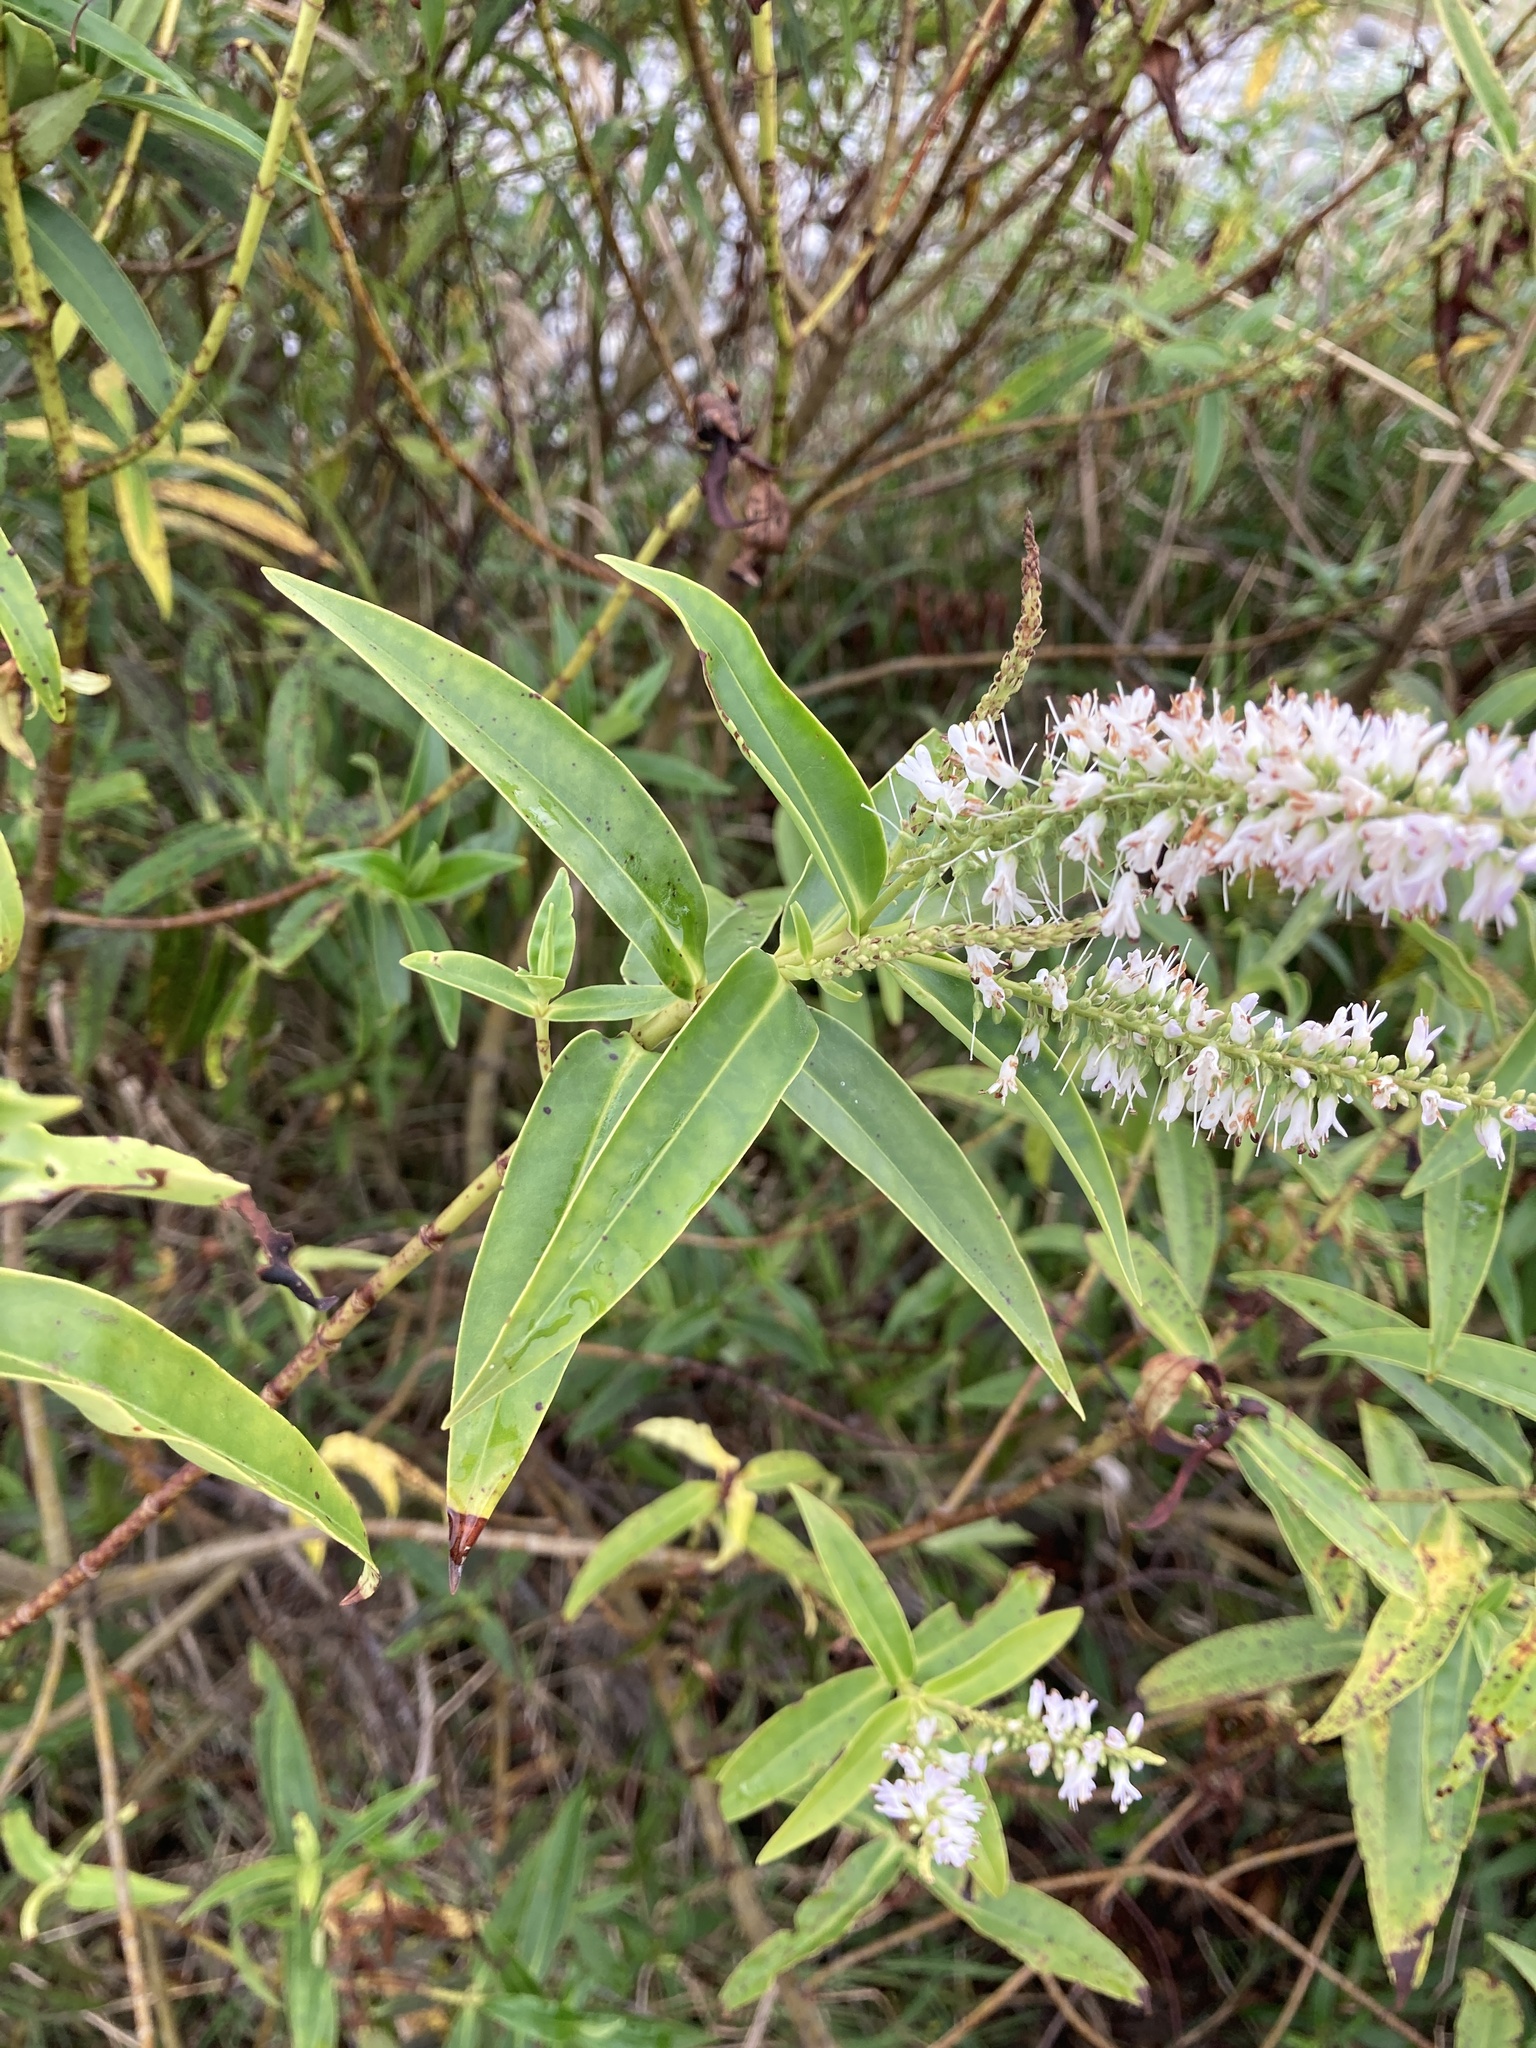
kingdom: Plantae
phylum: Tracheophyta
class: Magnoliopsida
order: Lamiales
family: Plantaginaceae
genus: Veronica
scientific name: Veronica stricta
